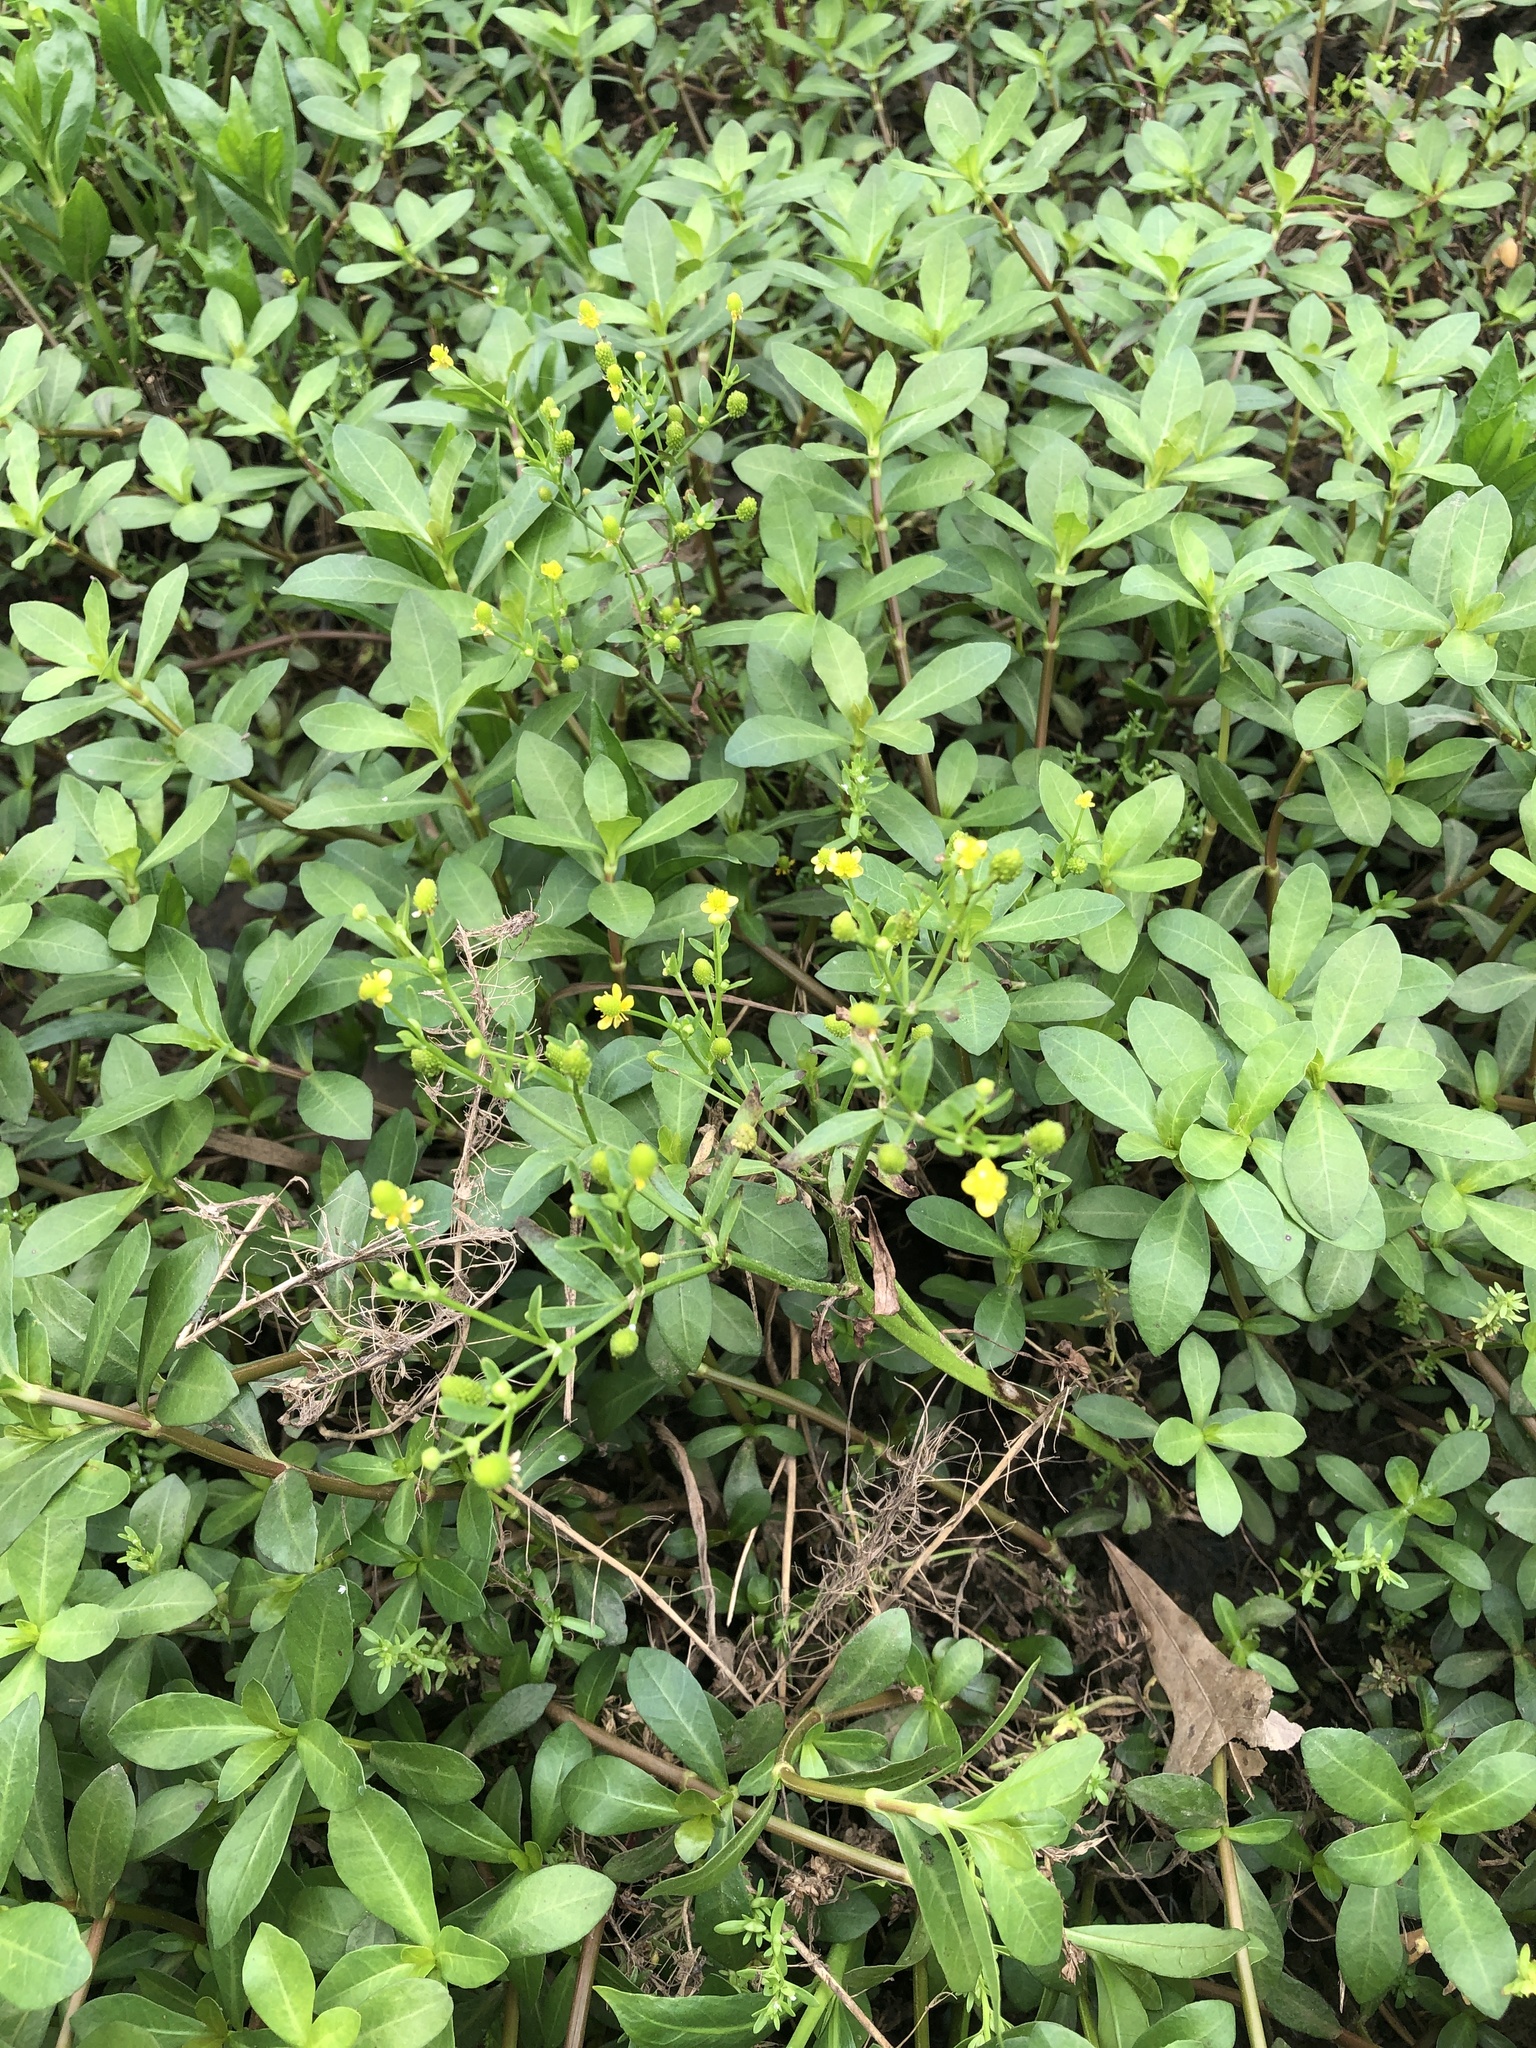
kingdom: Plantae
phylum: Tracheophyta
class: Magnoliopsida
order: Ranunculales
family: Ranunculaceae
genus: Ranunculus
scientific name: Ranunculus sceleratus
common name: Celery-leaved buttercup
